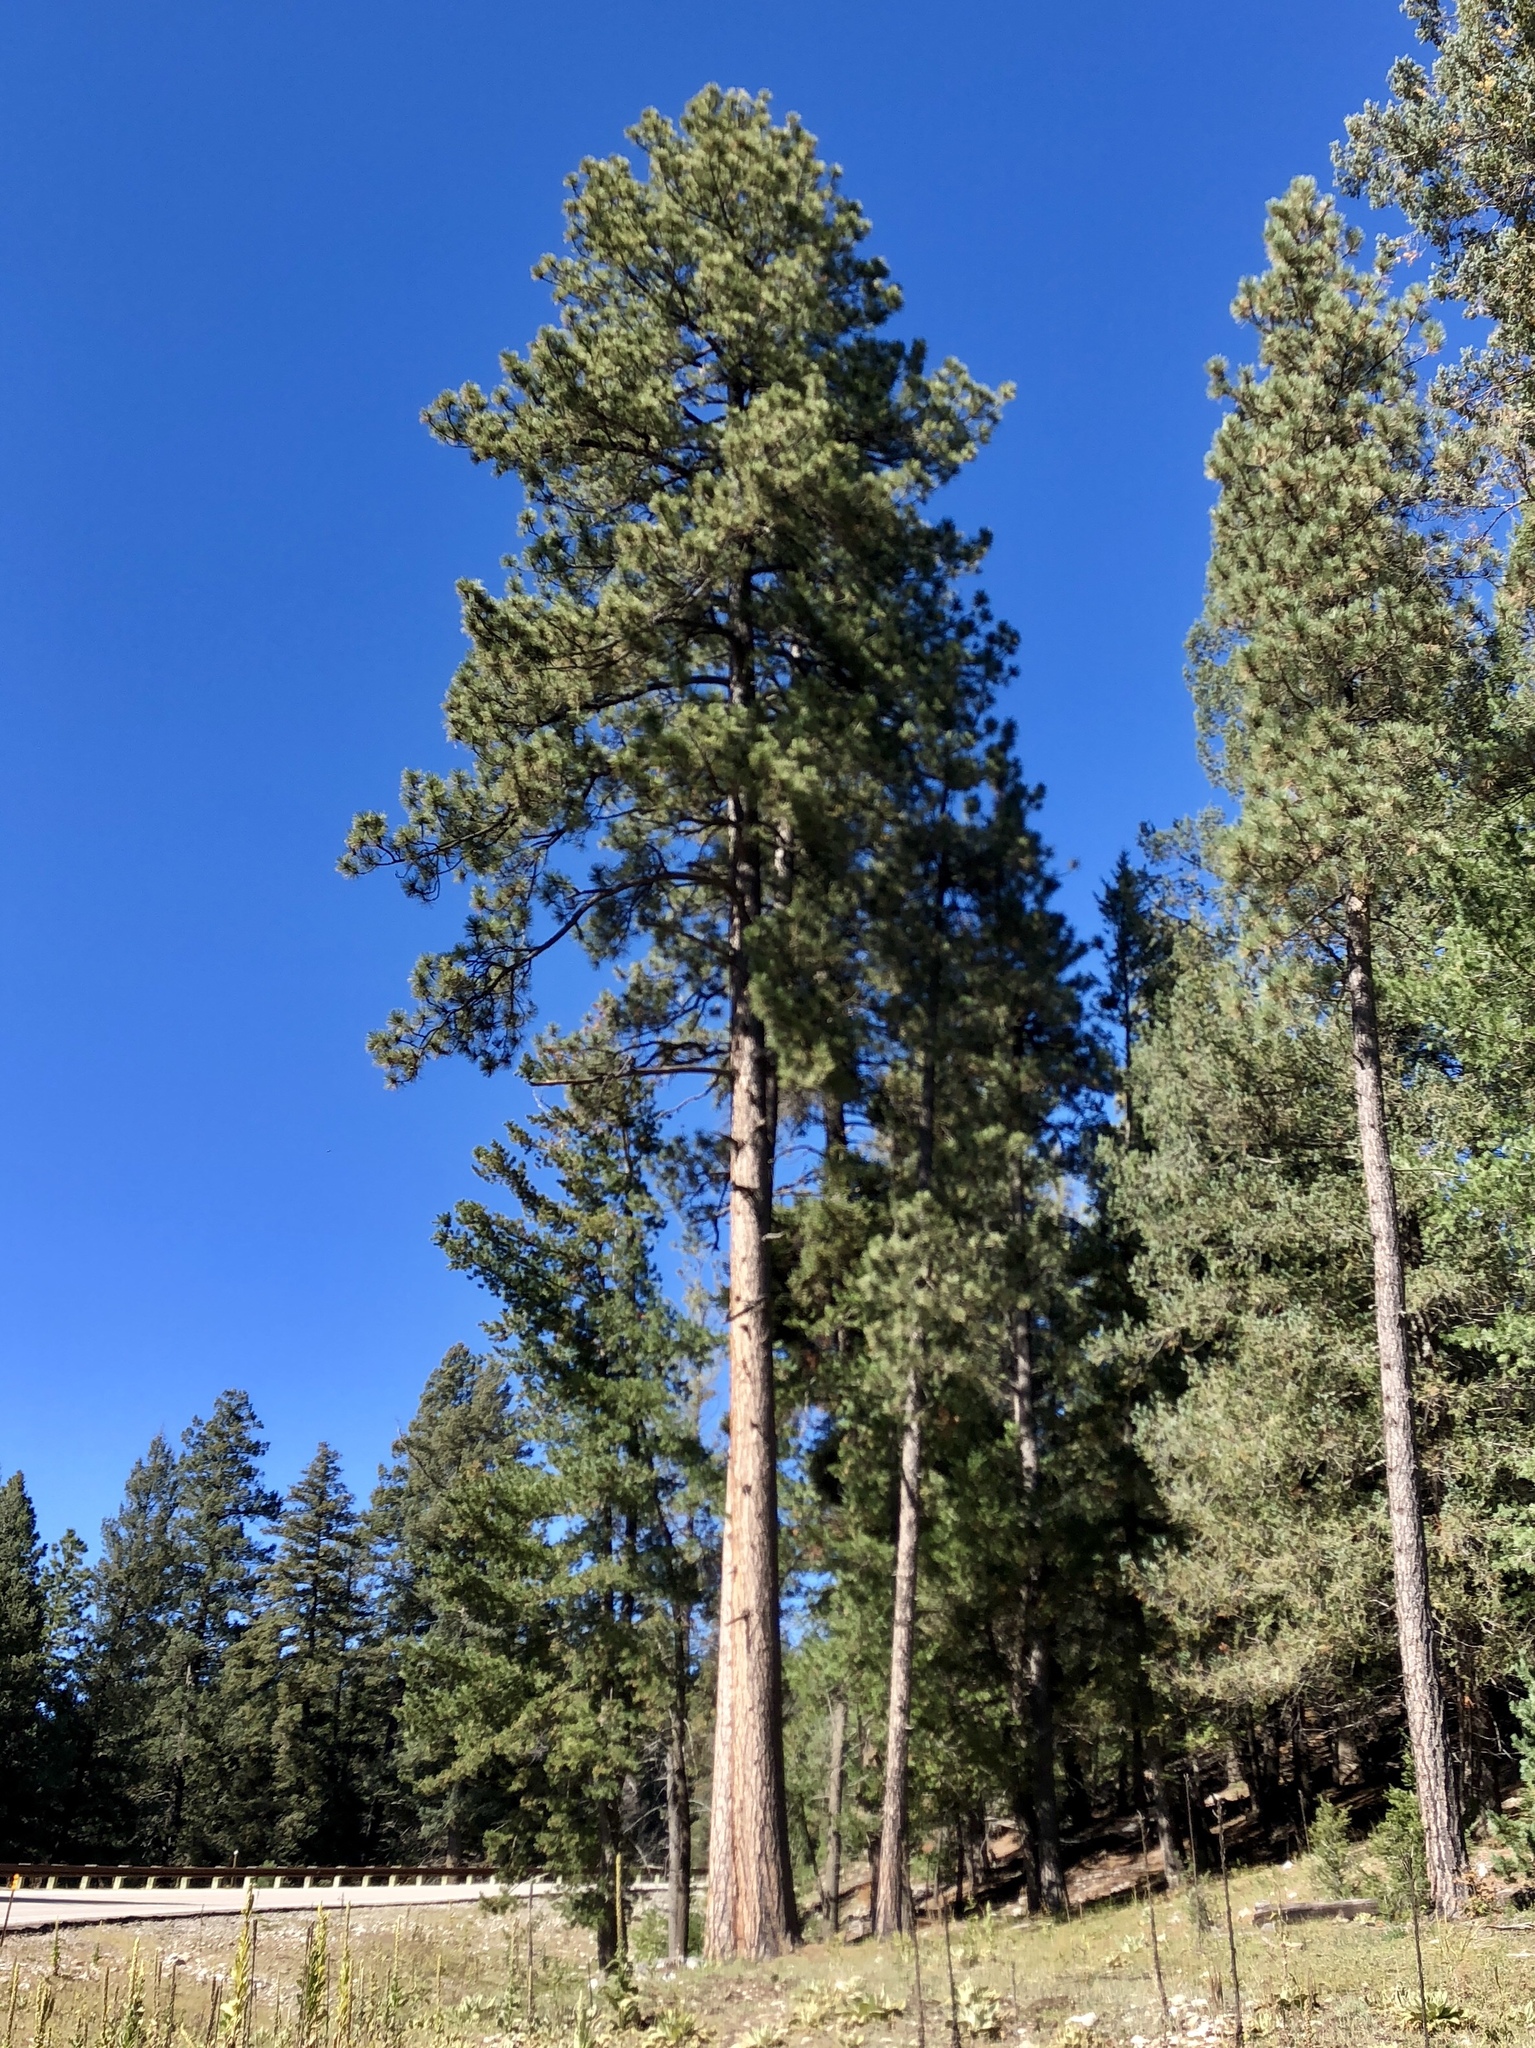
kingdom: Plantae
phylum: Tracheophyta
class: Pinopsida
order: Pinales
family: Pinaceae
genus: Pinus
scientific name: Pinus ponderosa
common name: Western yellow-pine
